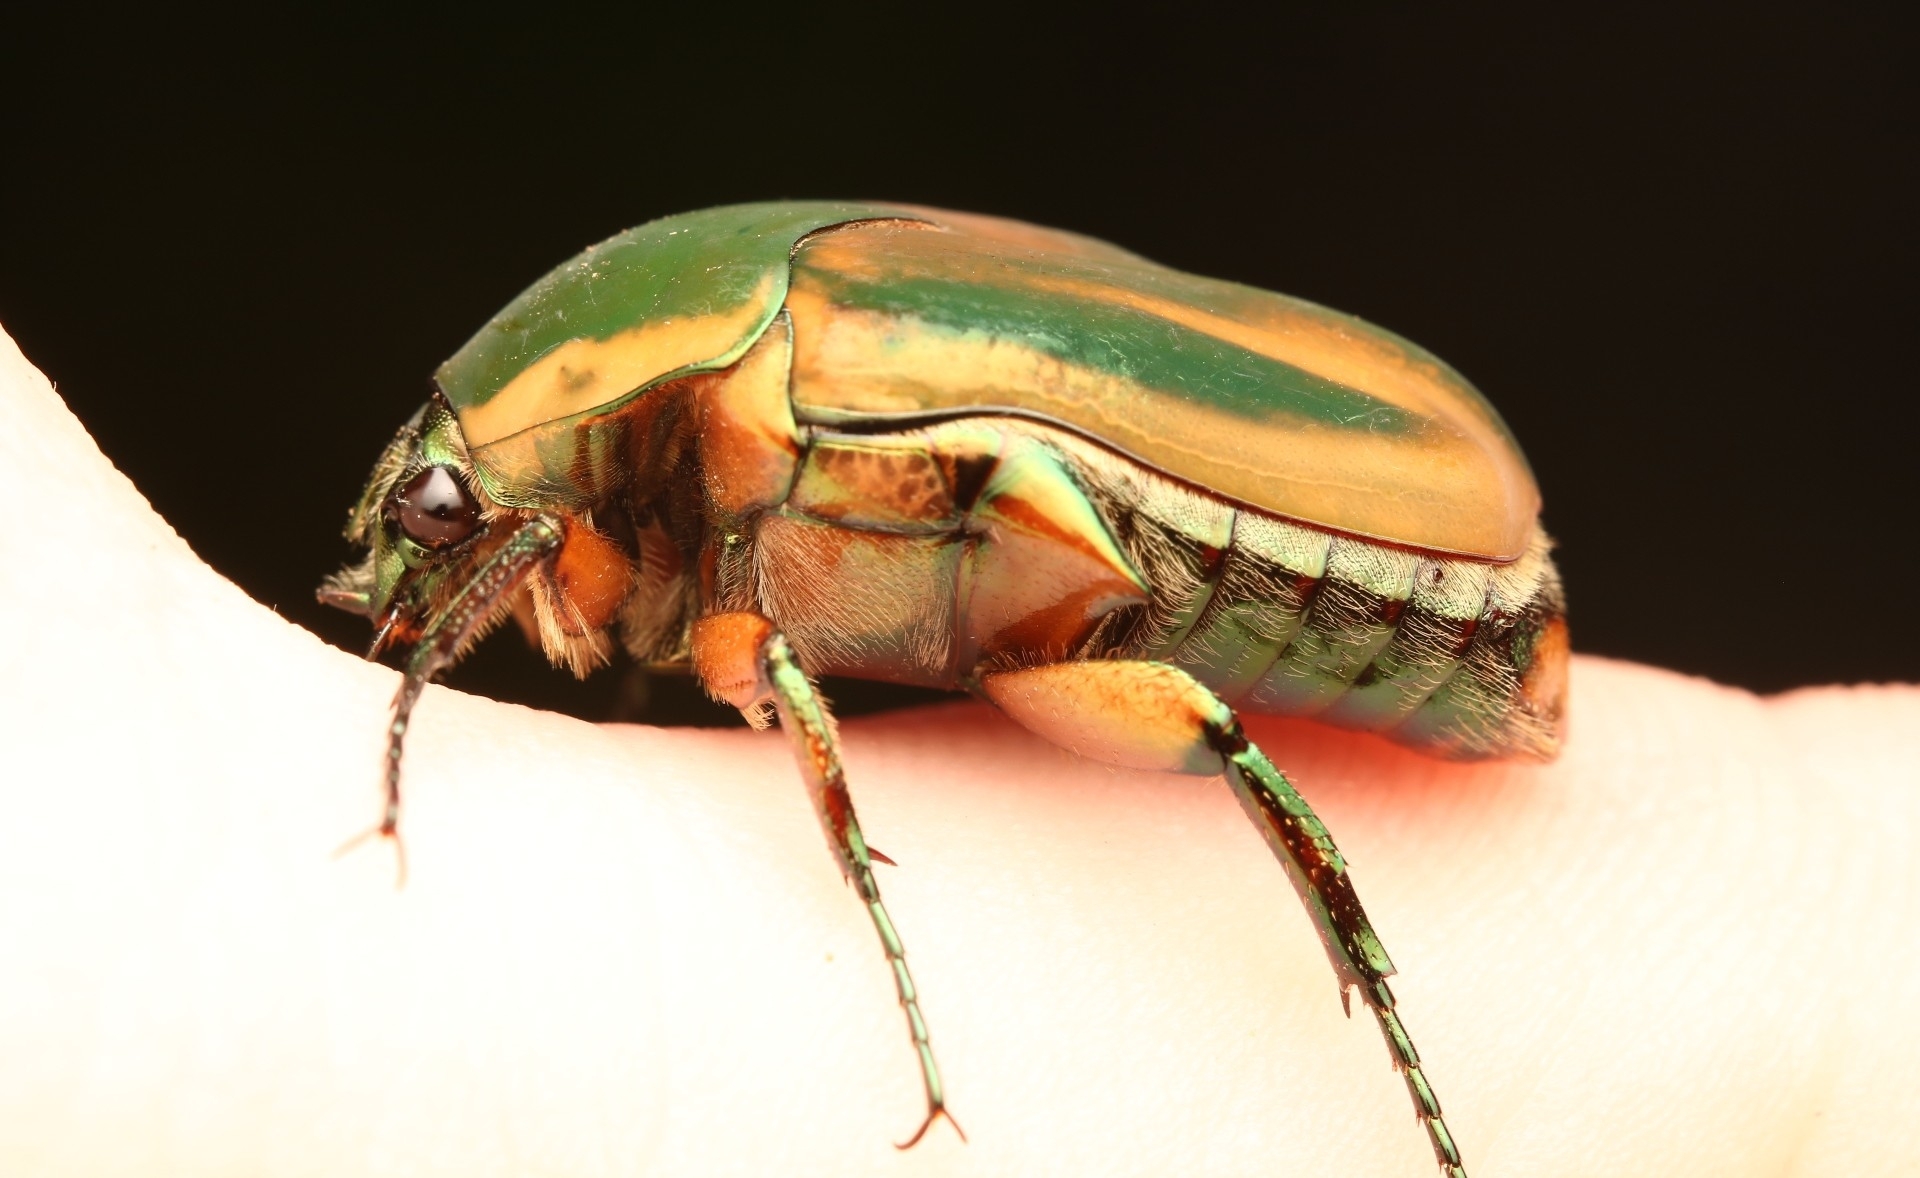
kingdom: Animalia
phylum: Arthropoda
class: Insecta
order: Coleoptera
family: Scarabaeidae
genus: Cotinis
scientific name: Cotinis nitida
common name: Common green june beetle
